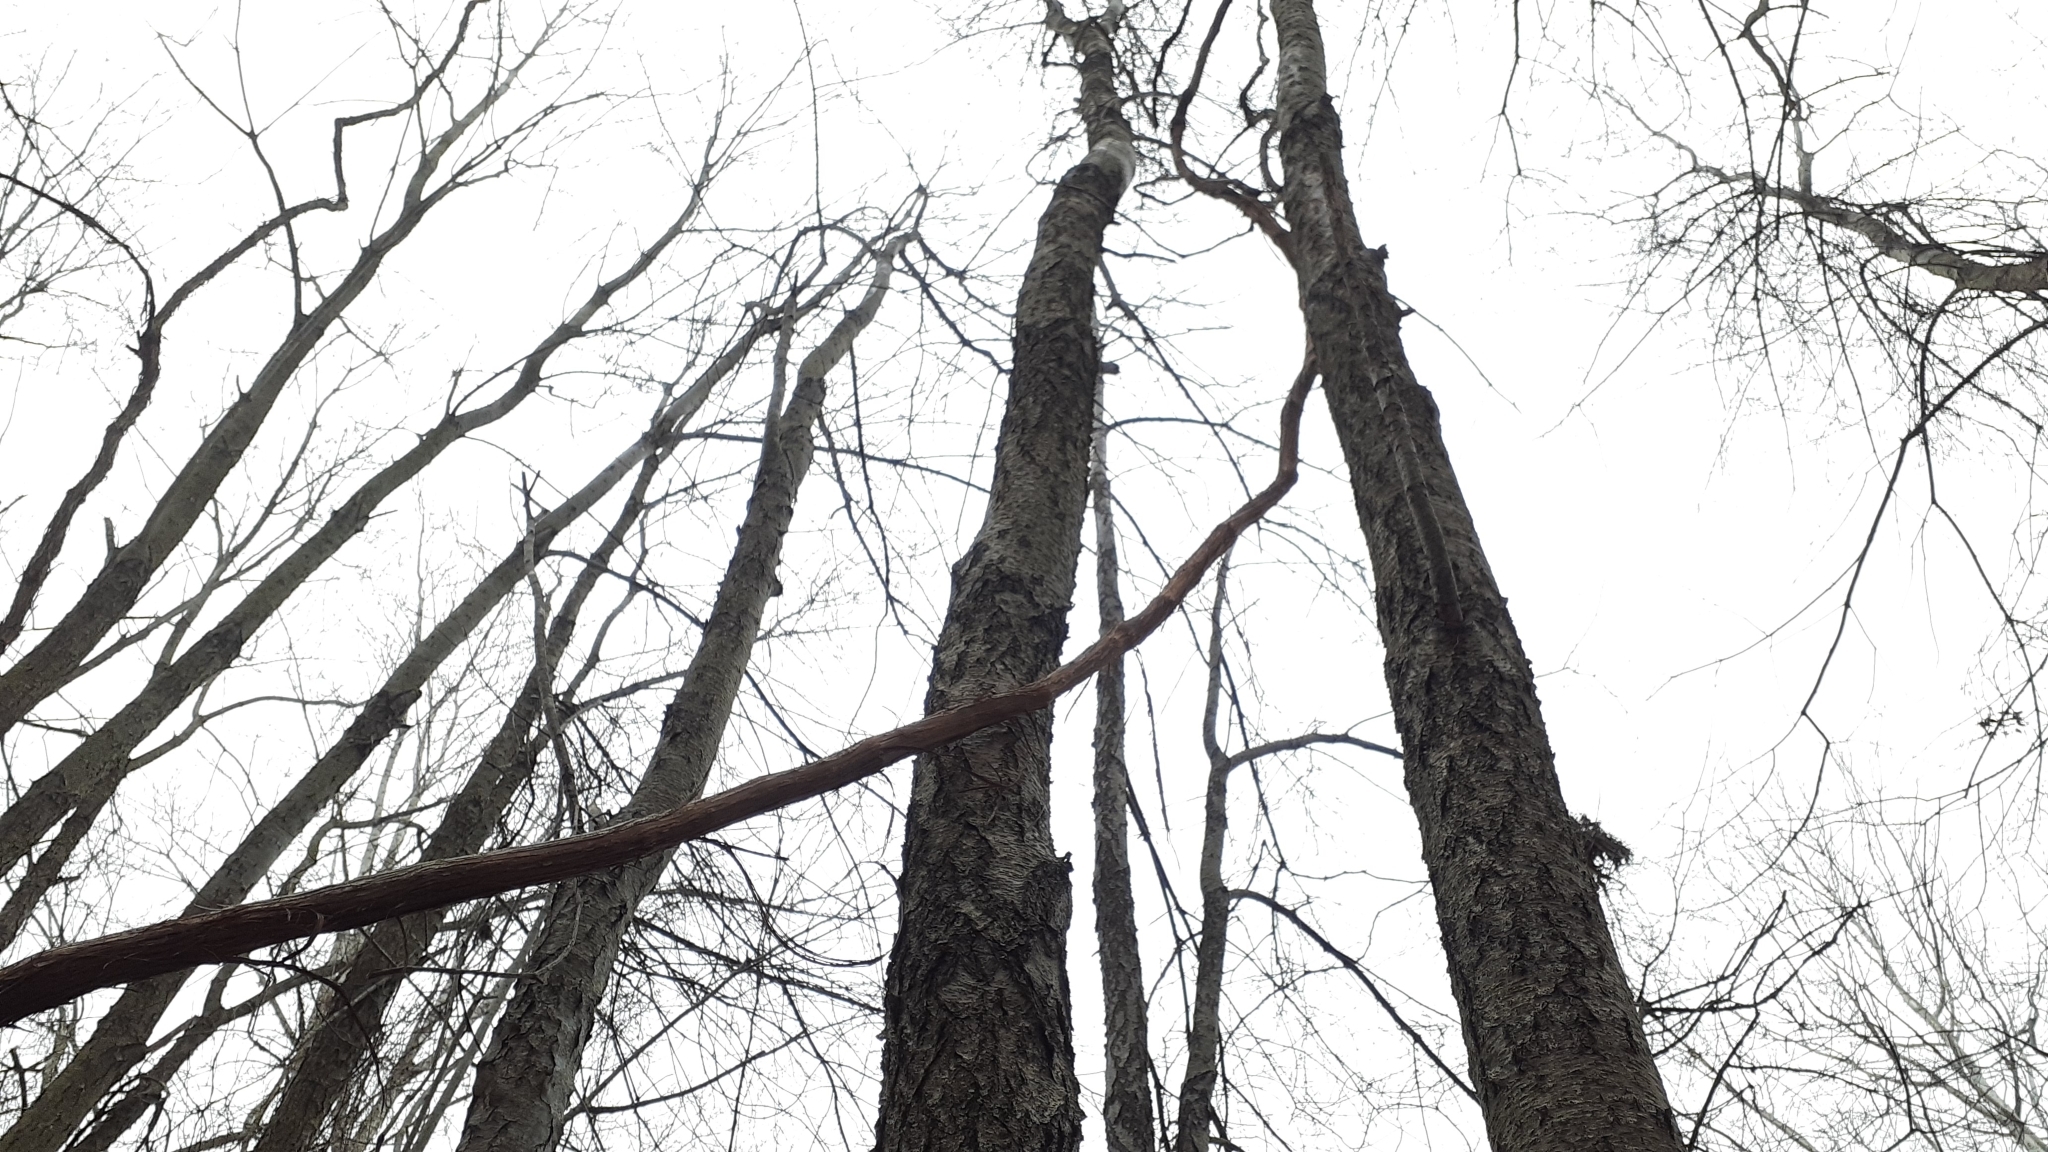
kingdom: Plantae
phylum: Tracheophyta
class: Magnoliopsida
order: Rosales
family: Rosaceae
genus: Prunus
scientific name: Prunus serotina
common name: Black cherry
